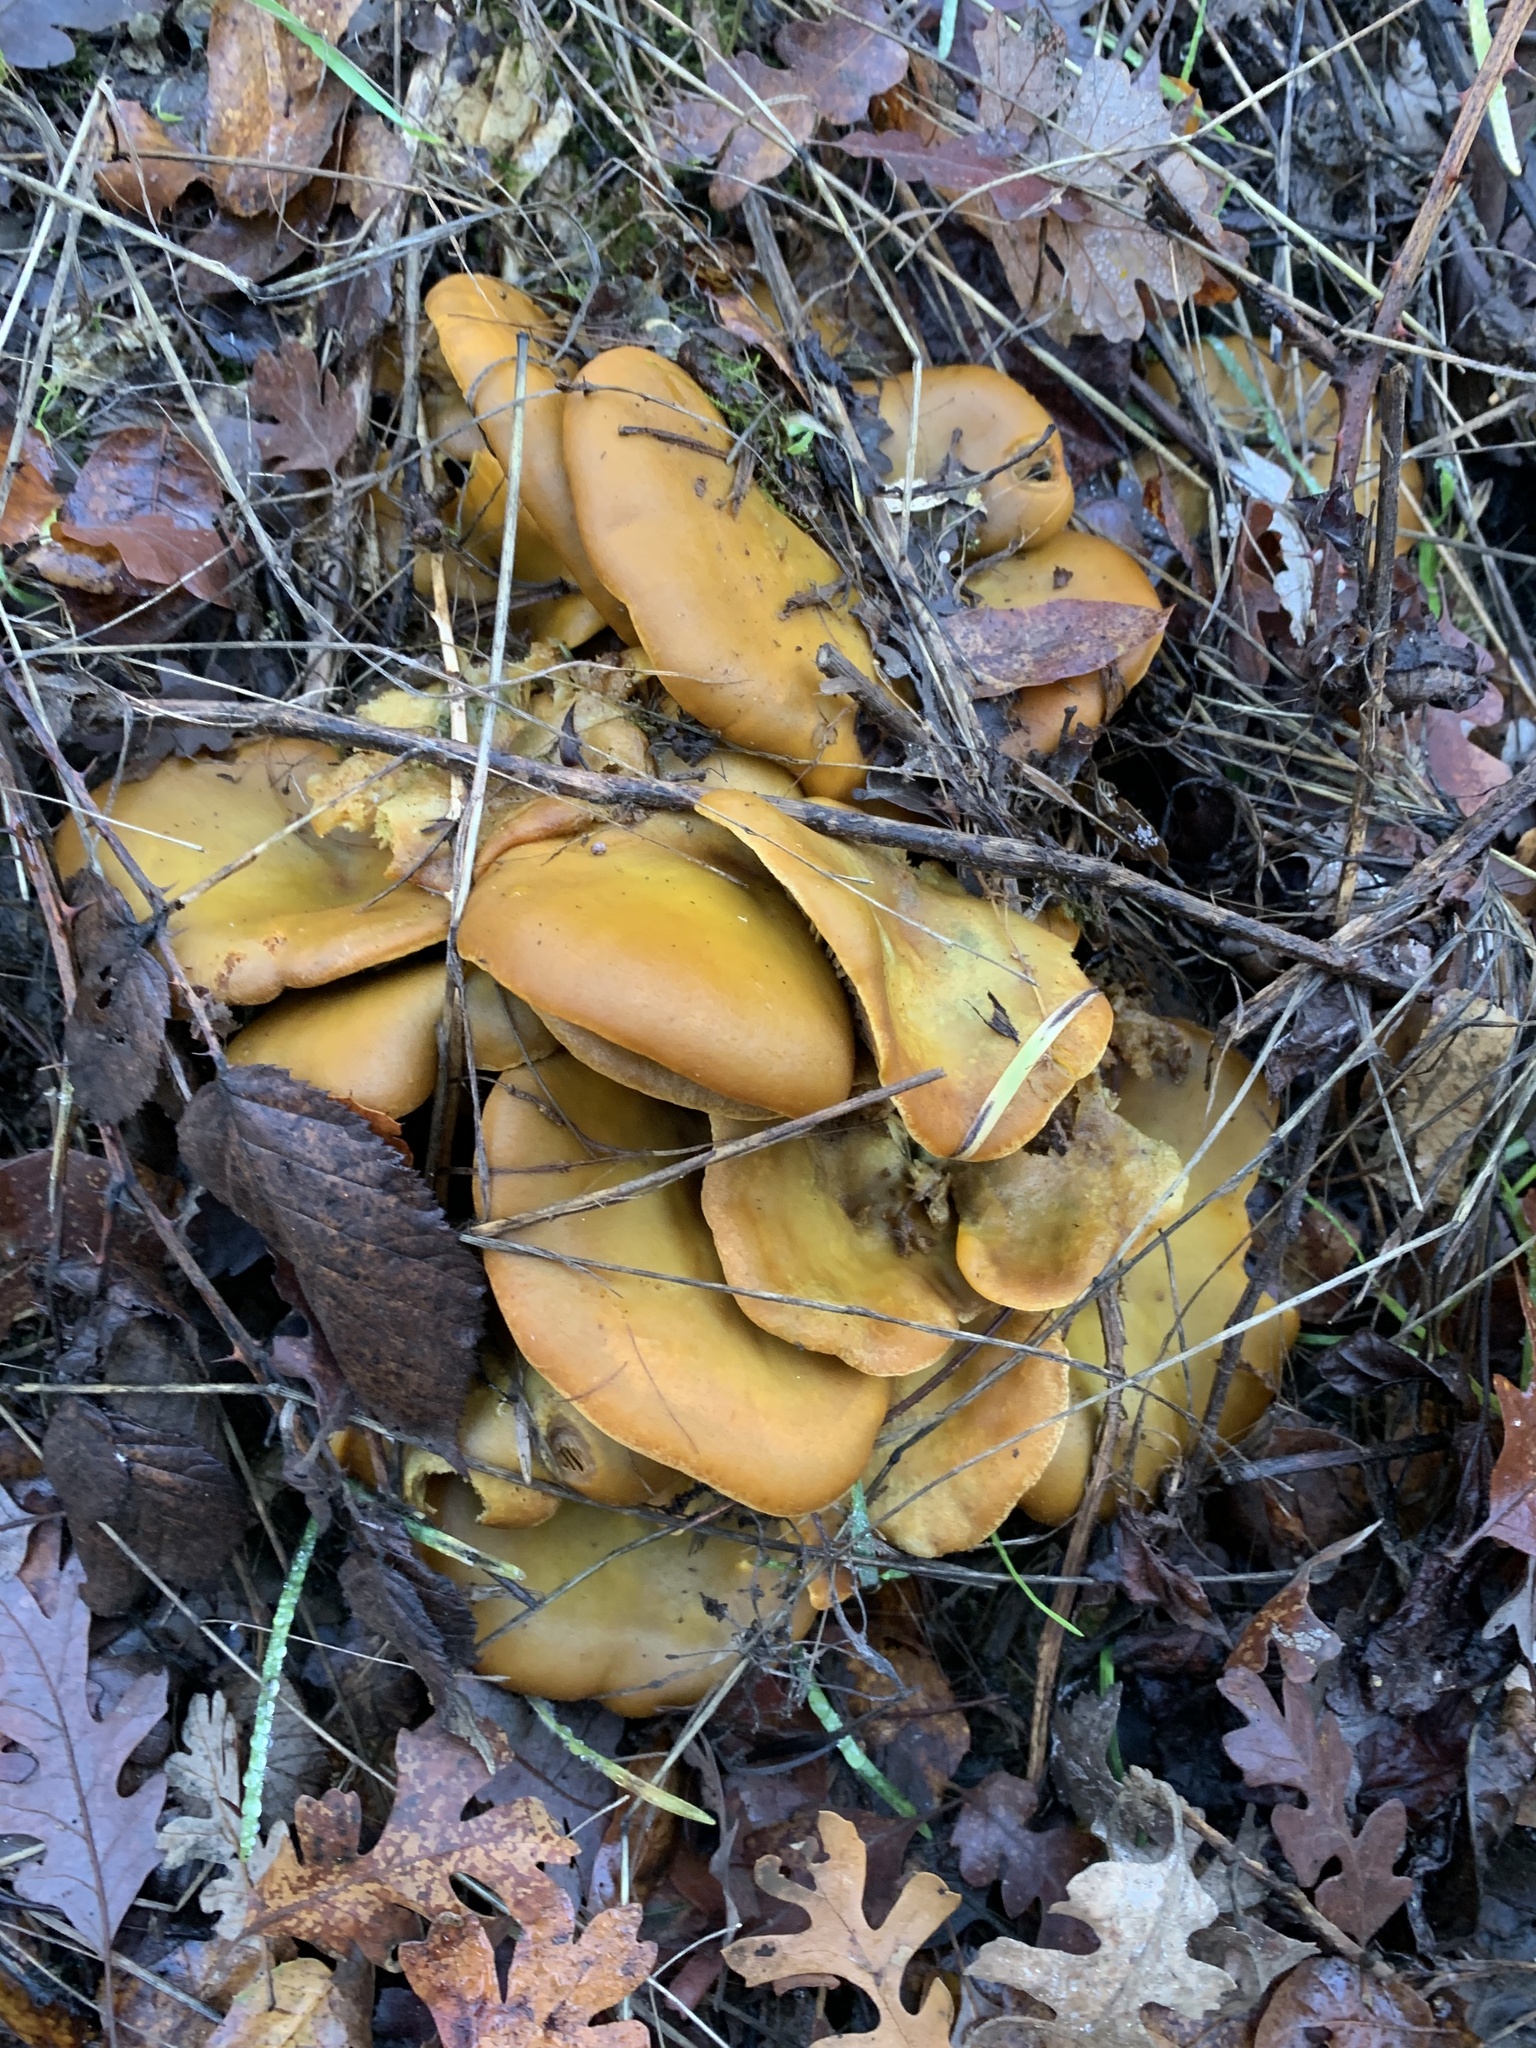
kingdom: Fungi
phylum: Basidiomycota
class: Agaricomycetes
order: Agaricales
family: Omphalotaceae
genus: Omphalotus
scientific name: Omphalotus olivascens
